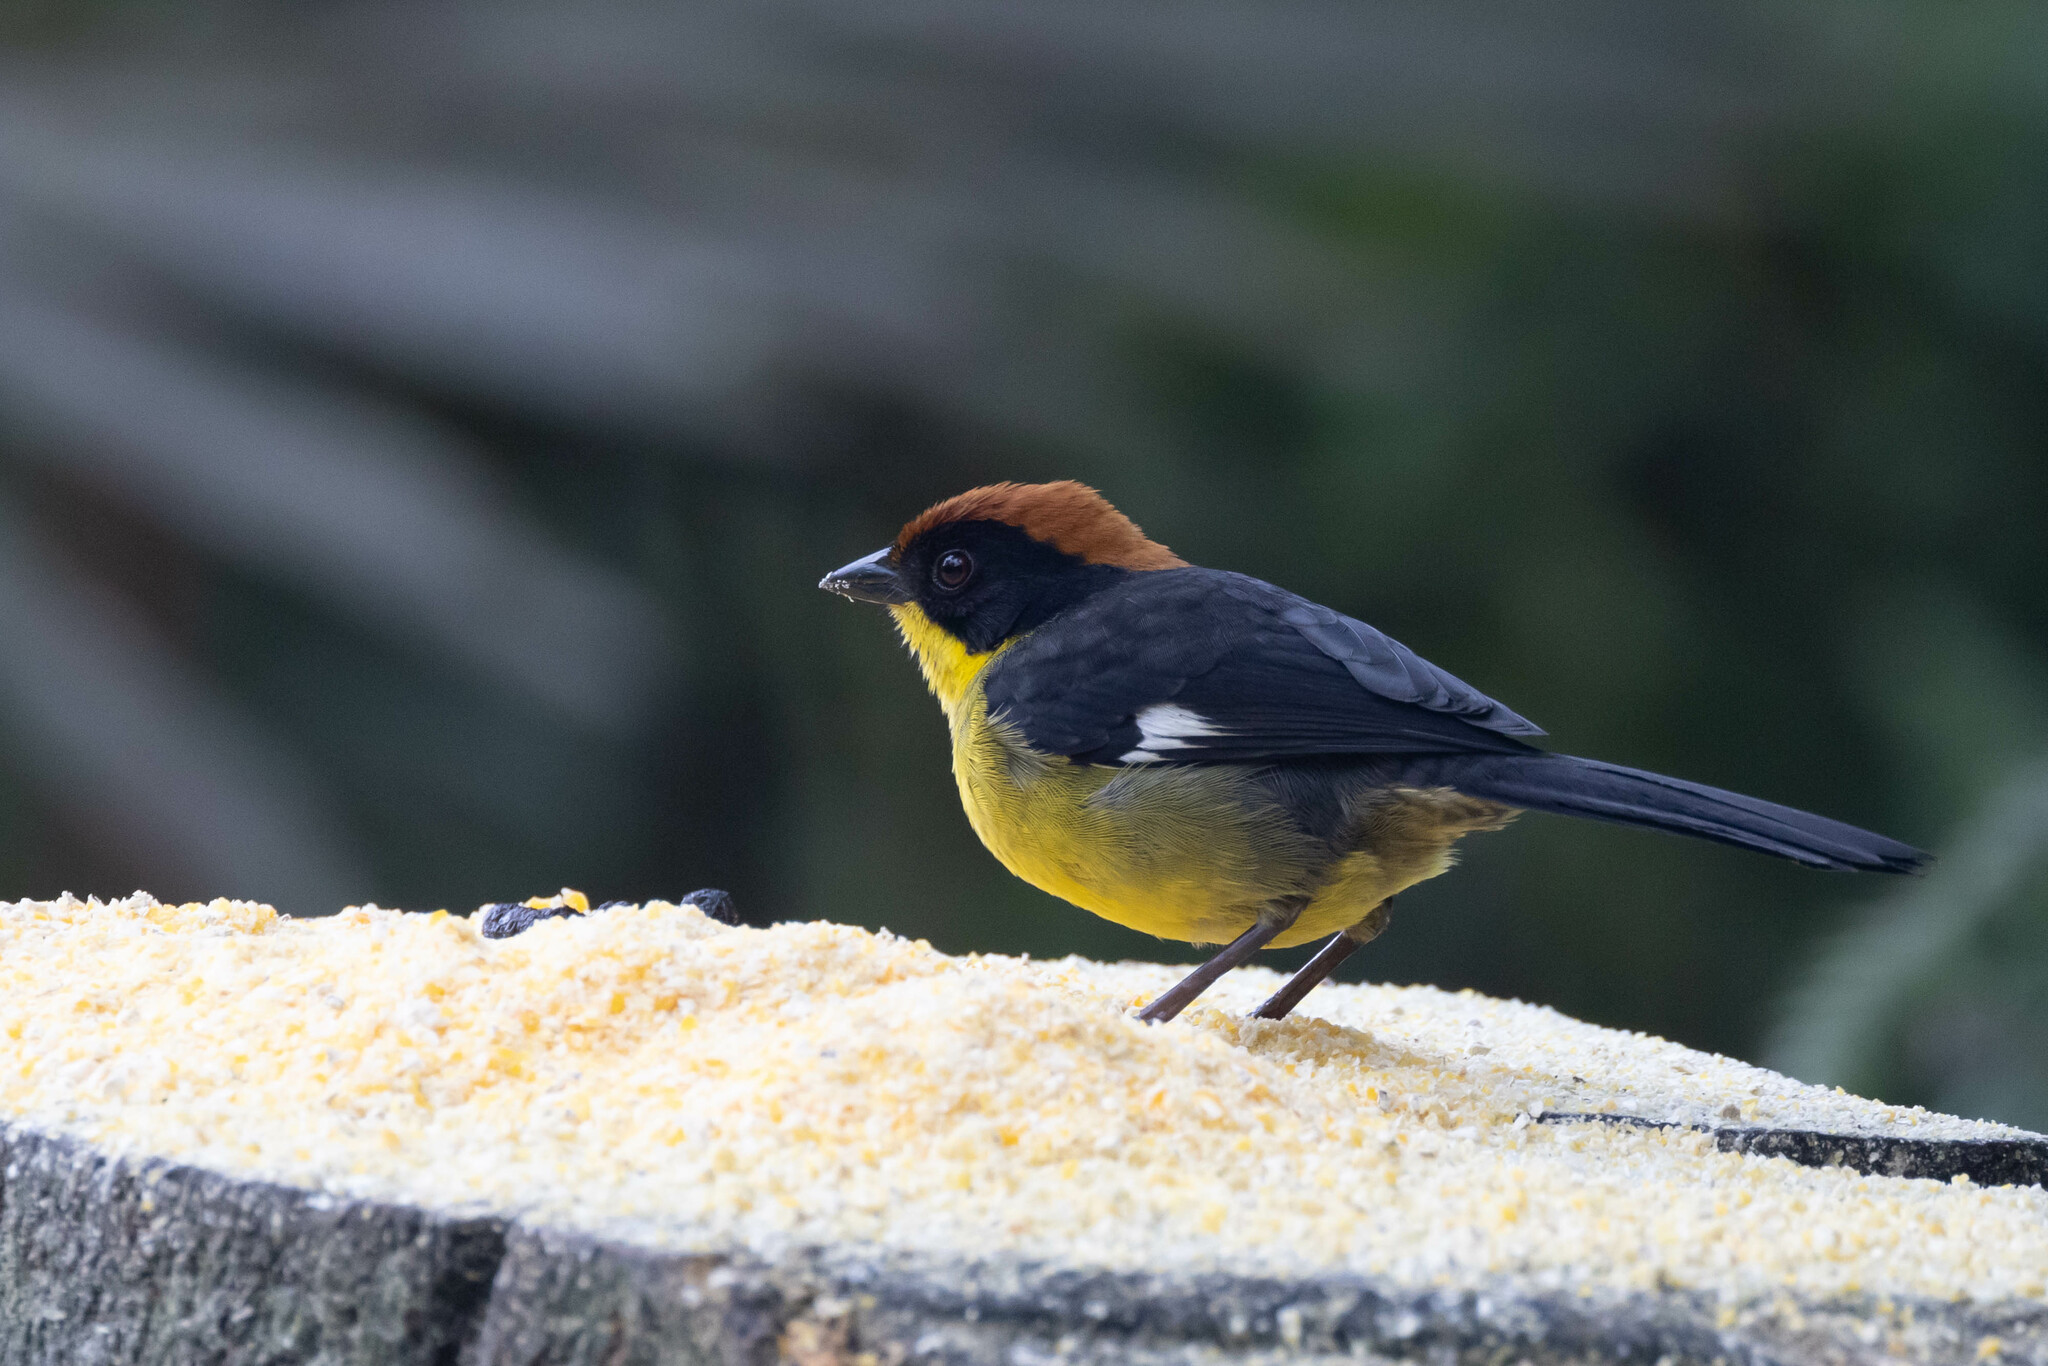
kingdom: Animalia
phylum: Chordata
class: Aves
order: Passeriformes
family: Passerellidae
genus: Atlapetes
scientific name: Atlapetes latinuchus
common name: Yellow-breasted brushfinch
